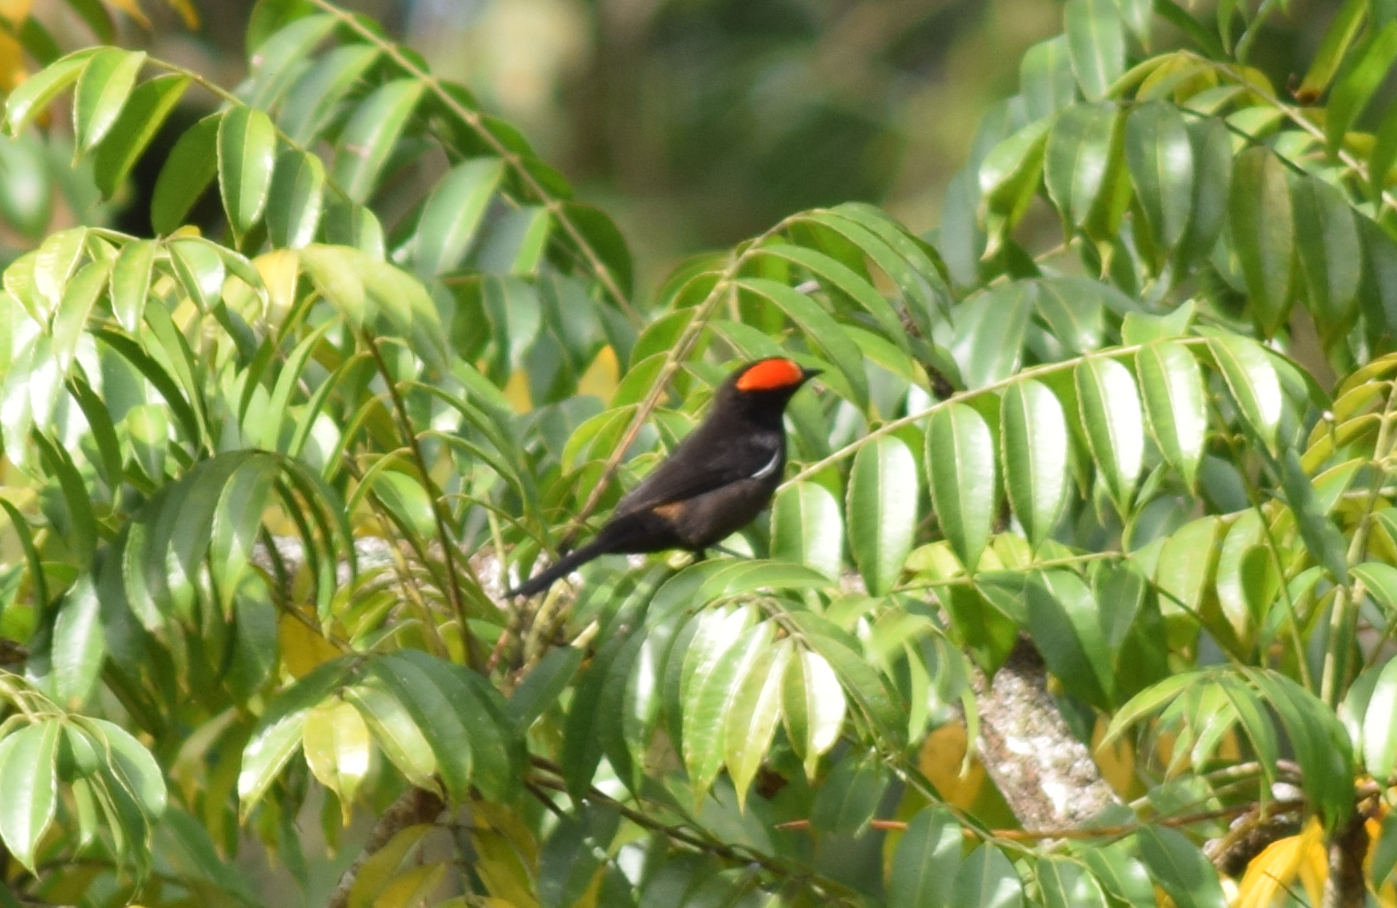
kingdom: Animalia
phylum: Chordata
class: Aves
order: Passeriformes
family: Thraupidae
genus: Loriotus
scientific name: Loriotus cristatus
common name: Flame-crested tanager
